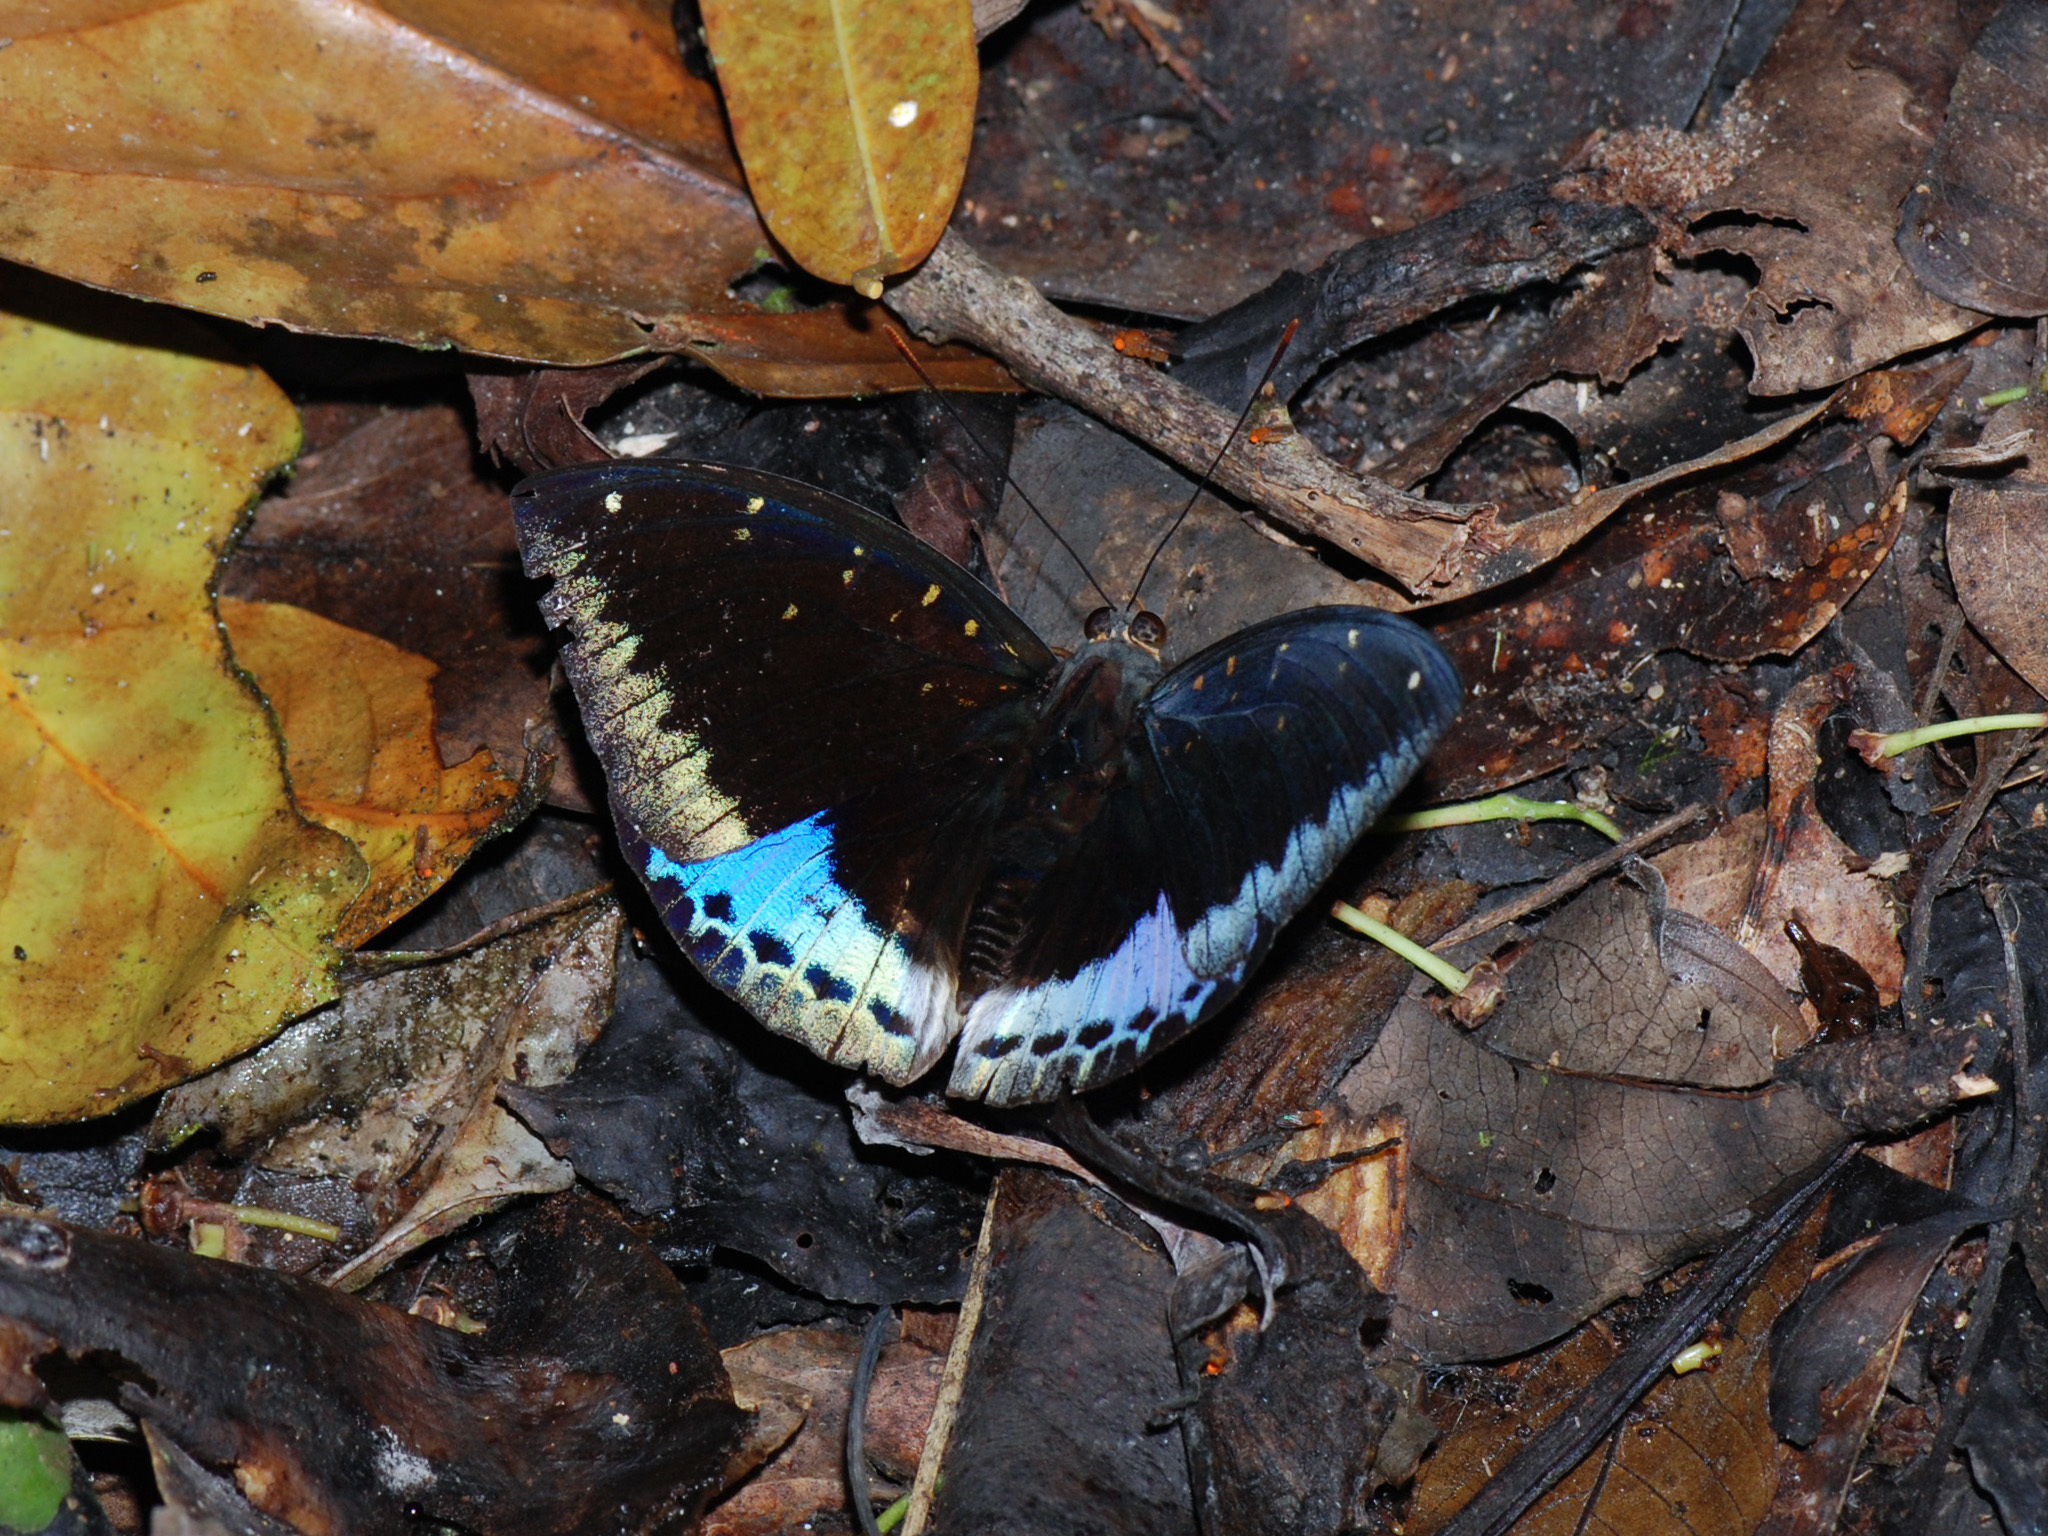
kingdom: Animalia
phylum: Arthropoda
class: Insecta
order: Lepidoptera
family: Nymphalidae
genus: Lexias
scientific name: Lexias pardalis
